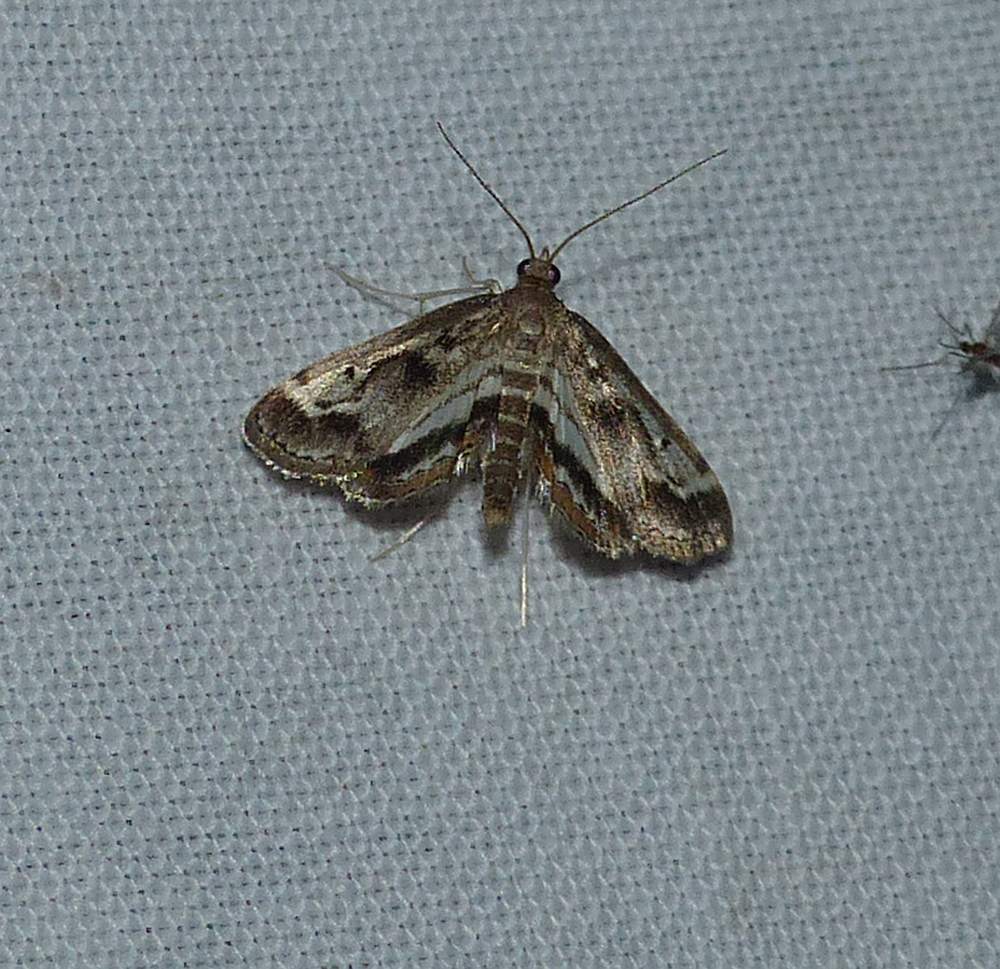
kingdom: Animalia
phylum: Arthropoda
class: Insecta
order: Lepidoptera
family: Crambidae
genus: Parapoynx
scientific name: Parapoynx obscuralis
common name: American china-mark
